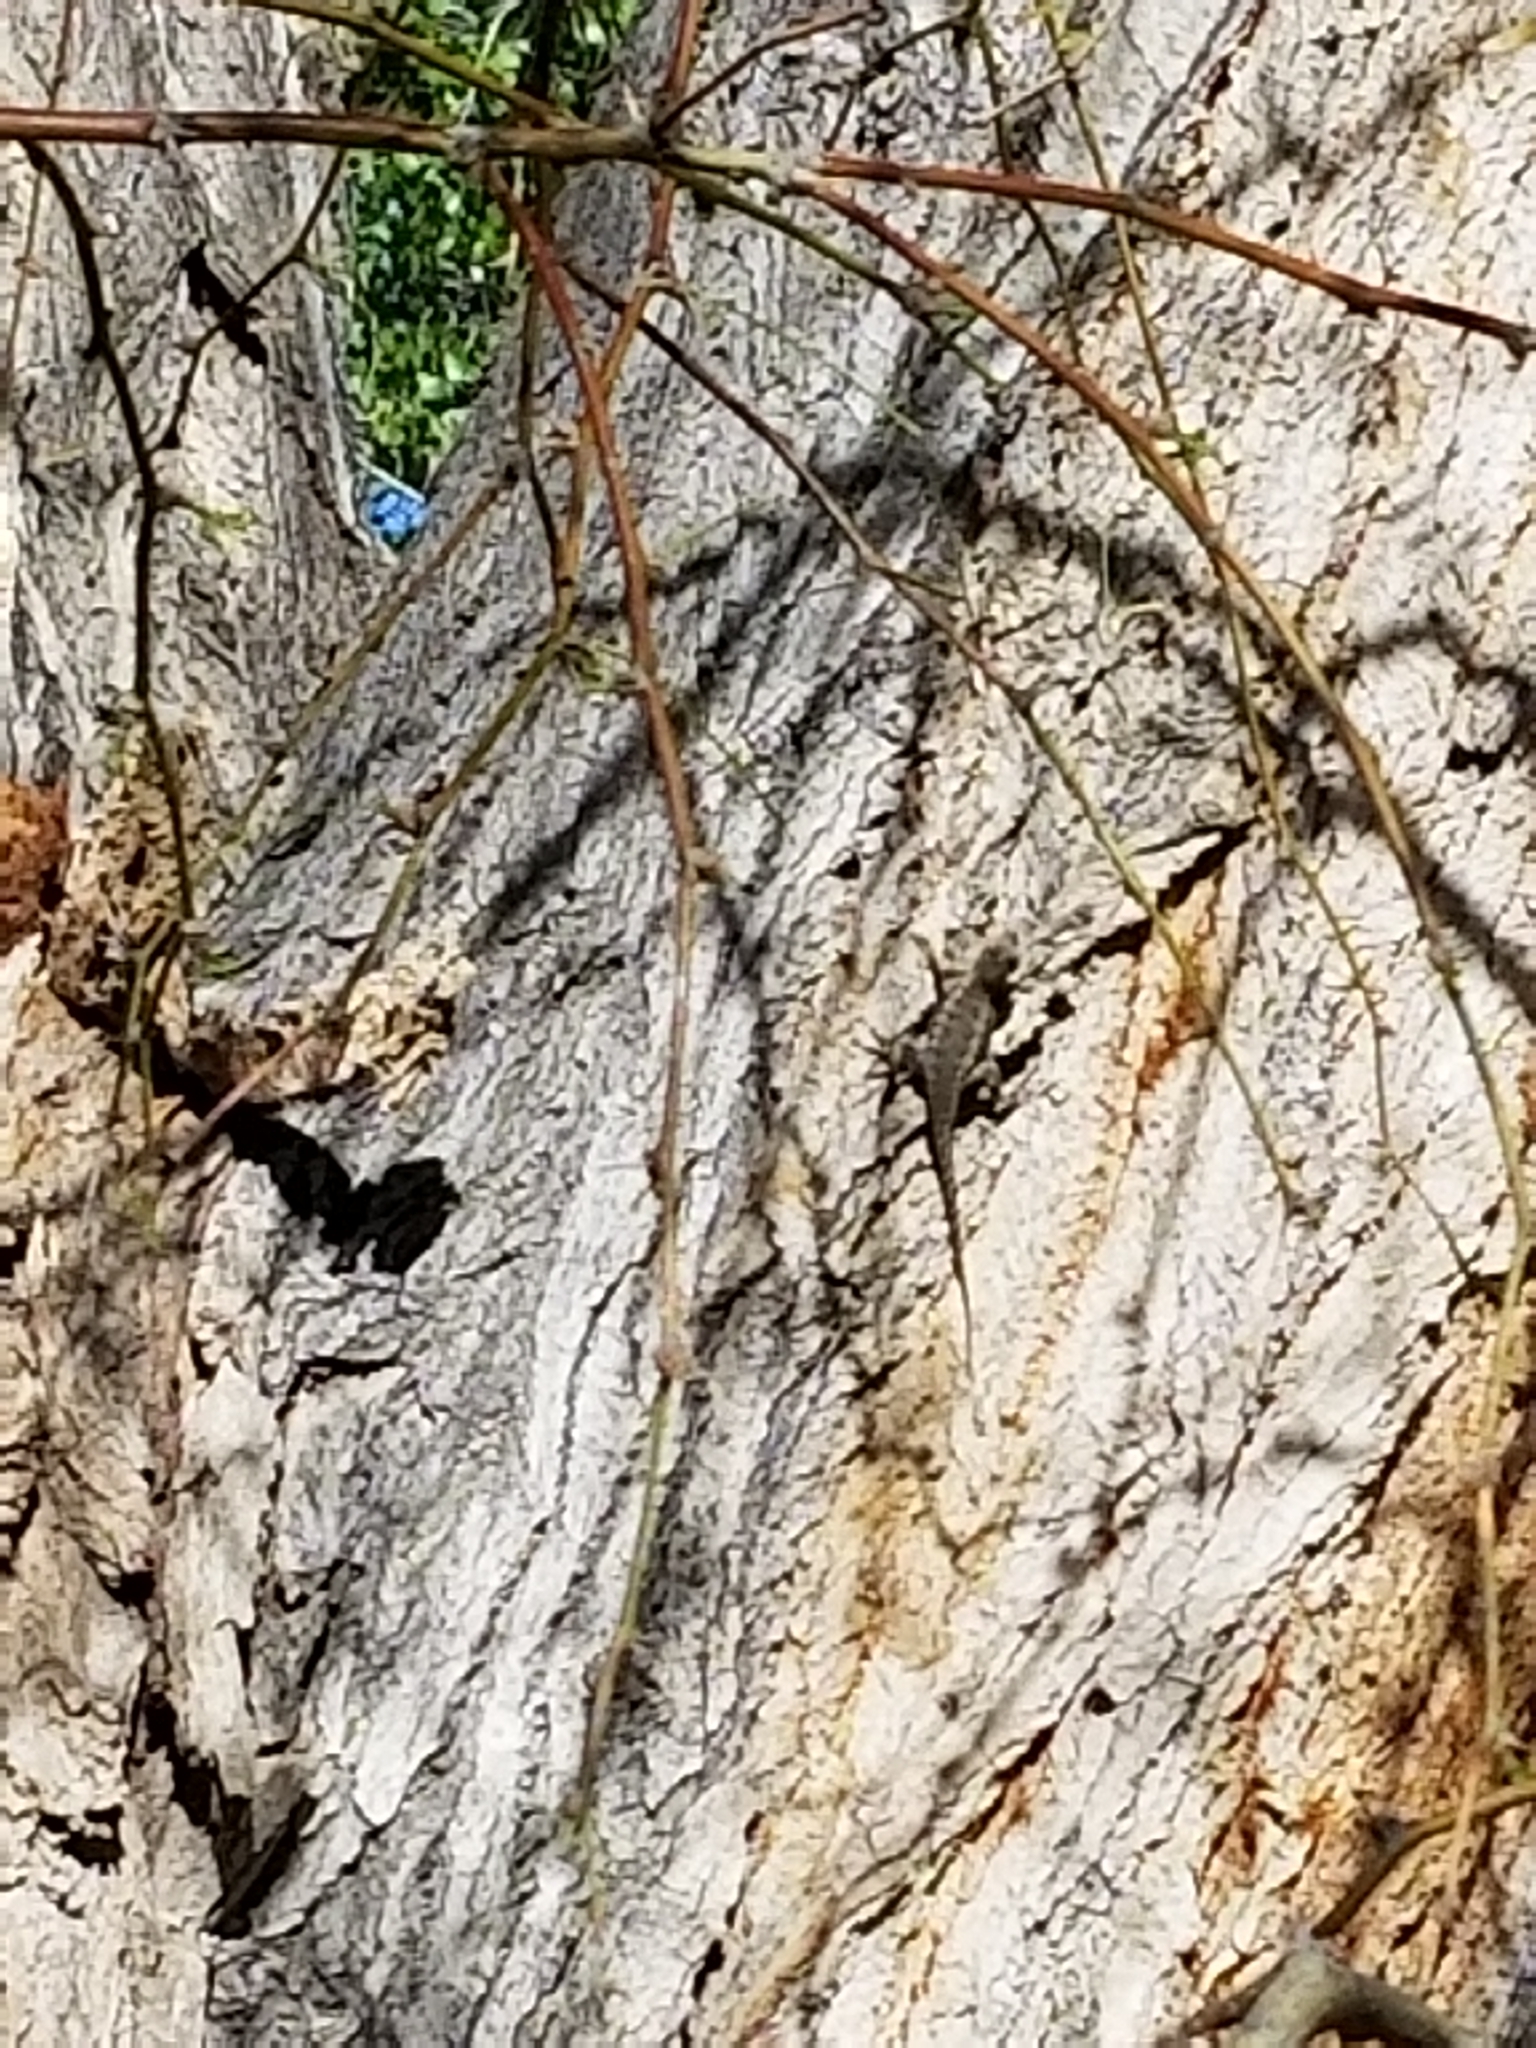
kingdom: Animalia
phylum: Chordata
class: Squamata
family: Phrynosomatidae
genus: Sceloporus
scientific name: Sceloporus occidentalis
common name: Western fence lizard
